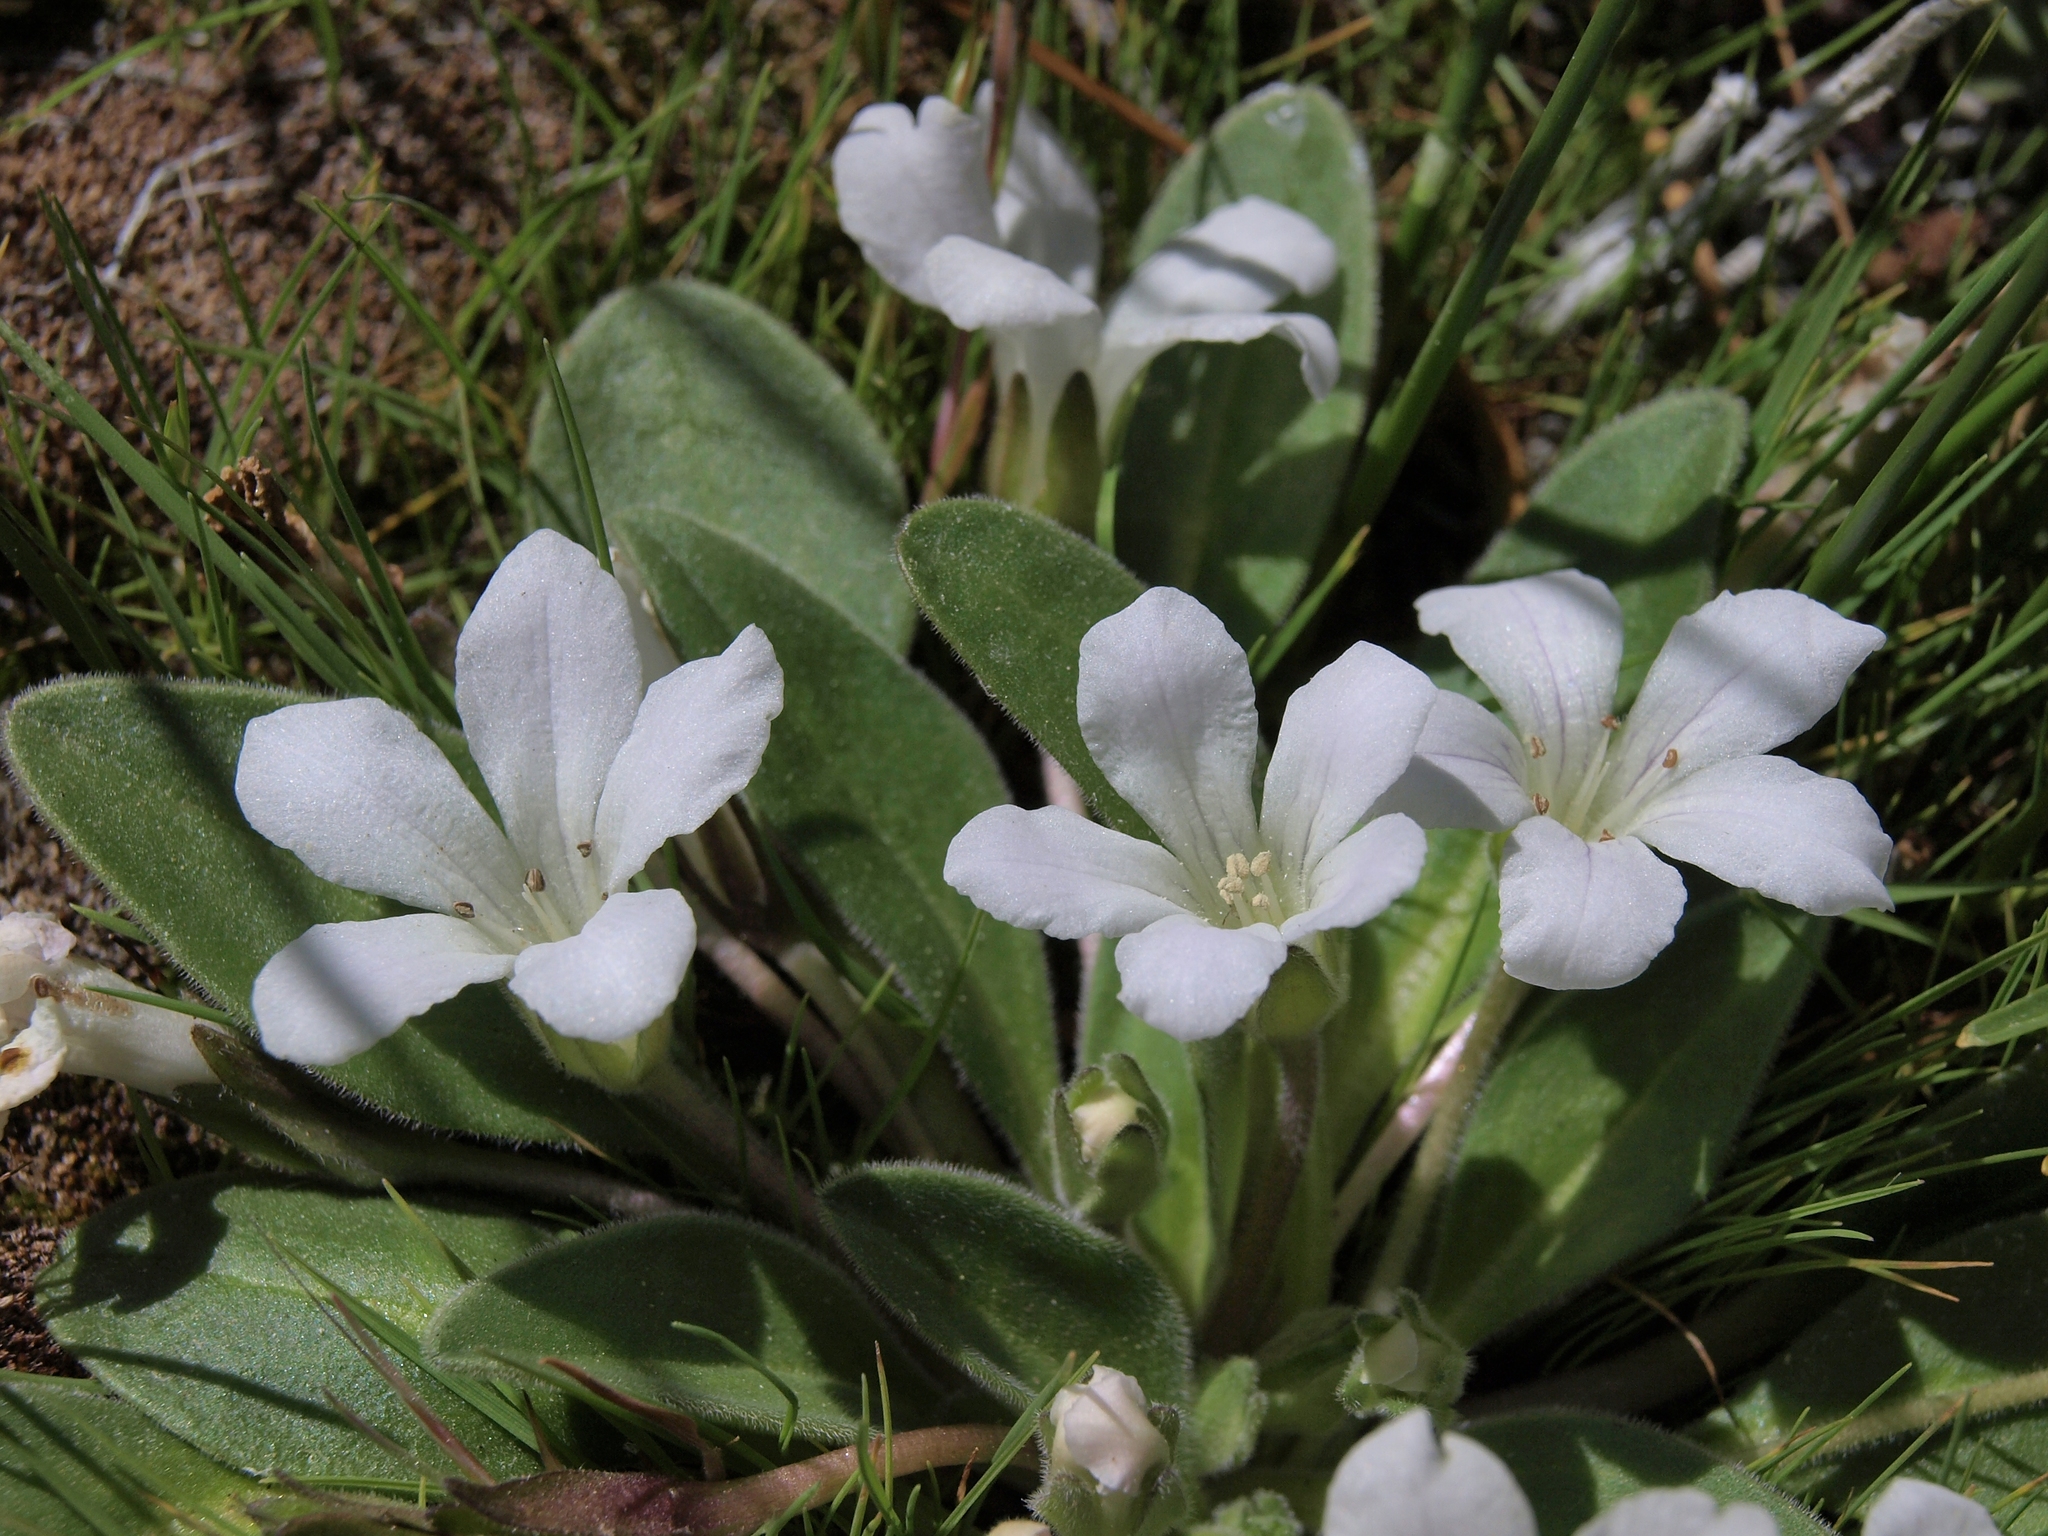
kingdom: Plantae
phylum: Tracheophyta
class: Magnoliopsida
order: Boraginales
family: Hydrophyllaceae
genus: Hesperochiron
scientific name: Hesperochiron californicus
